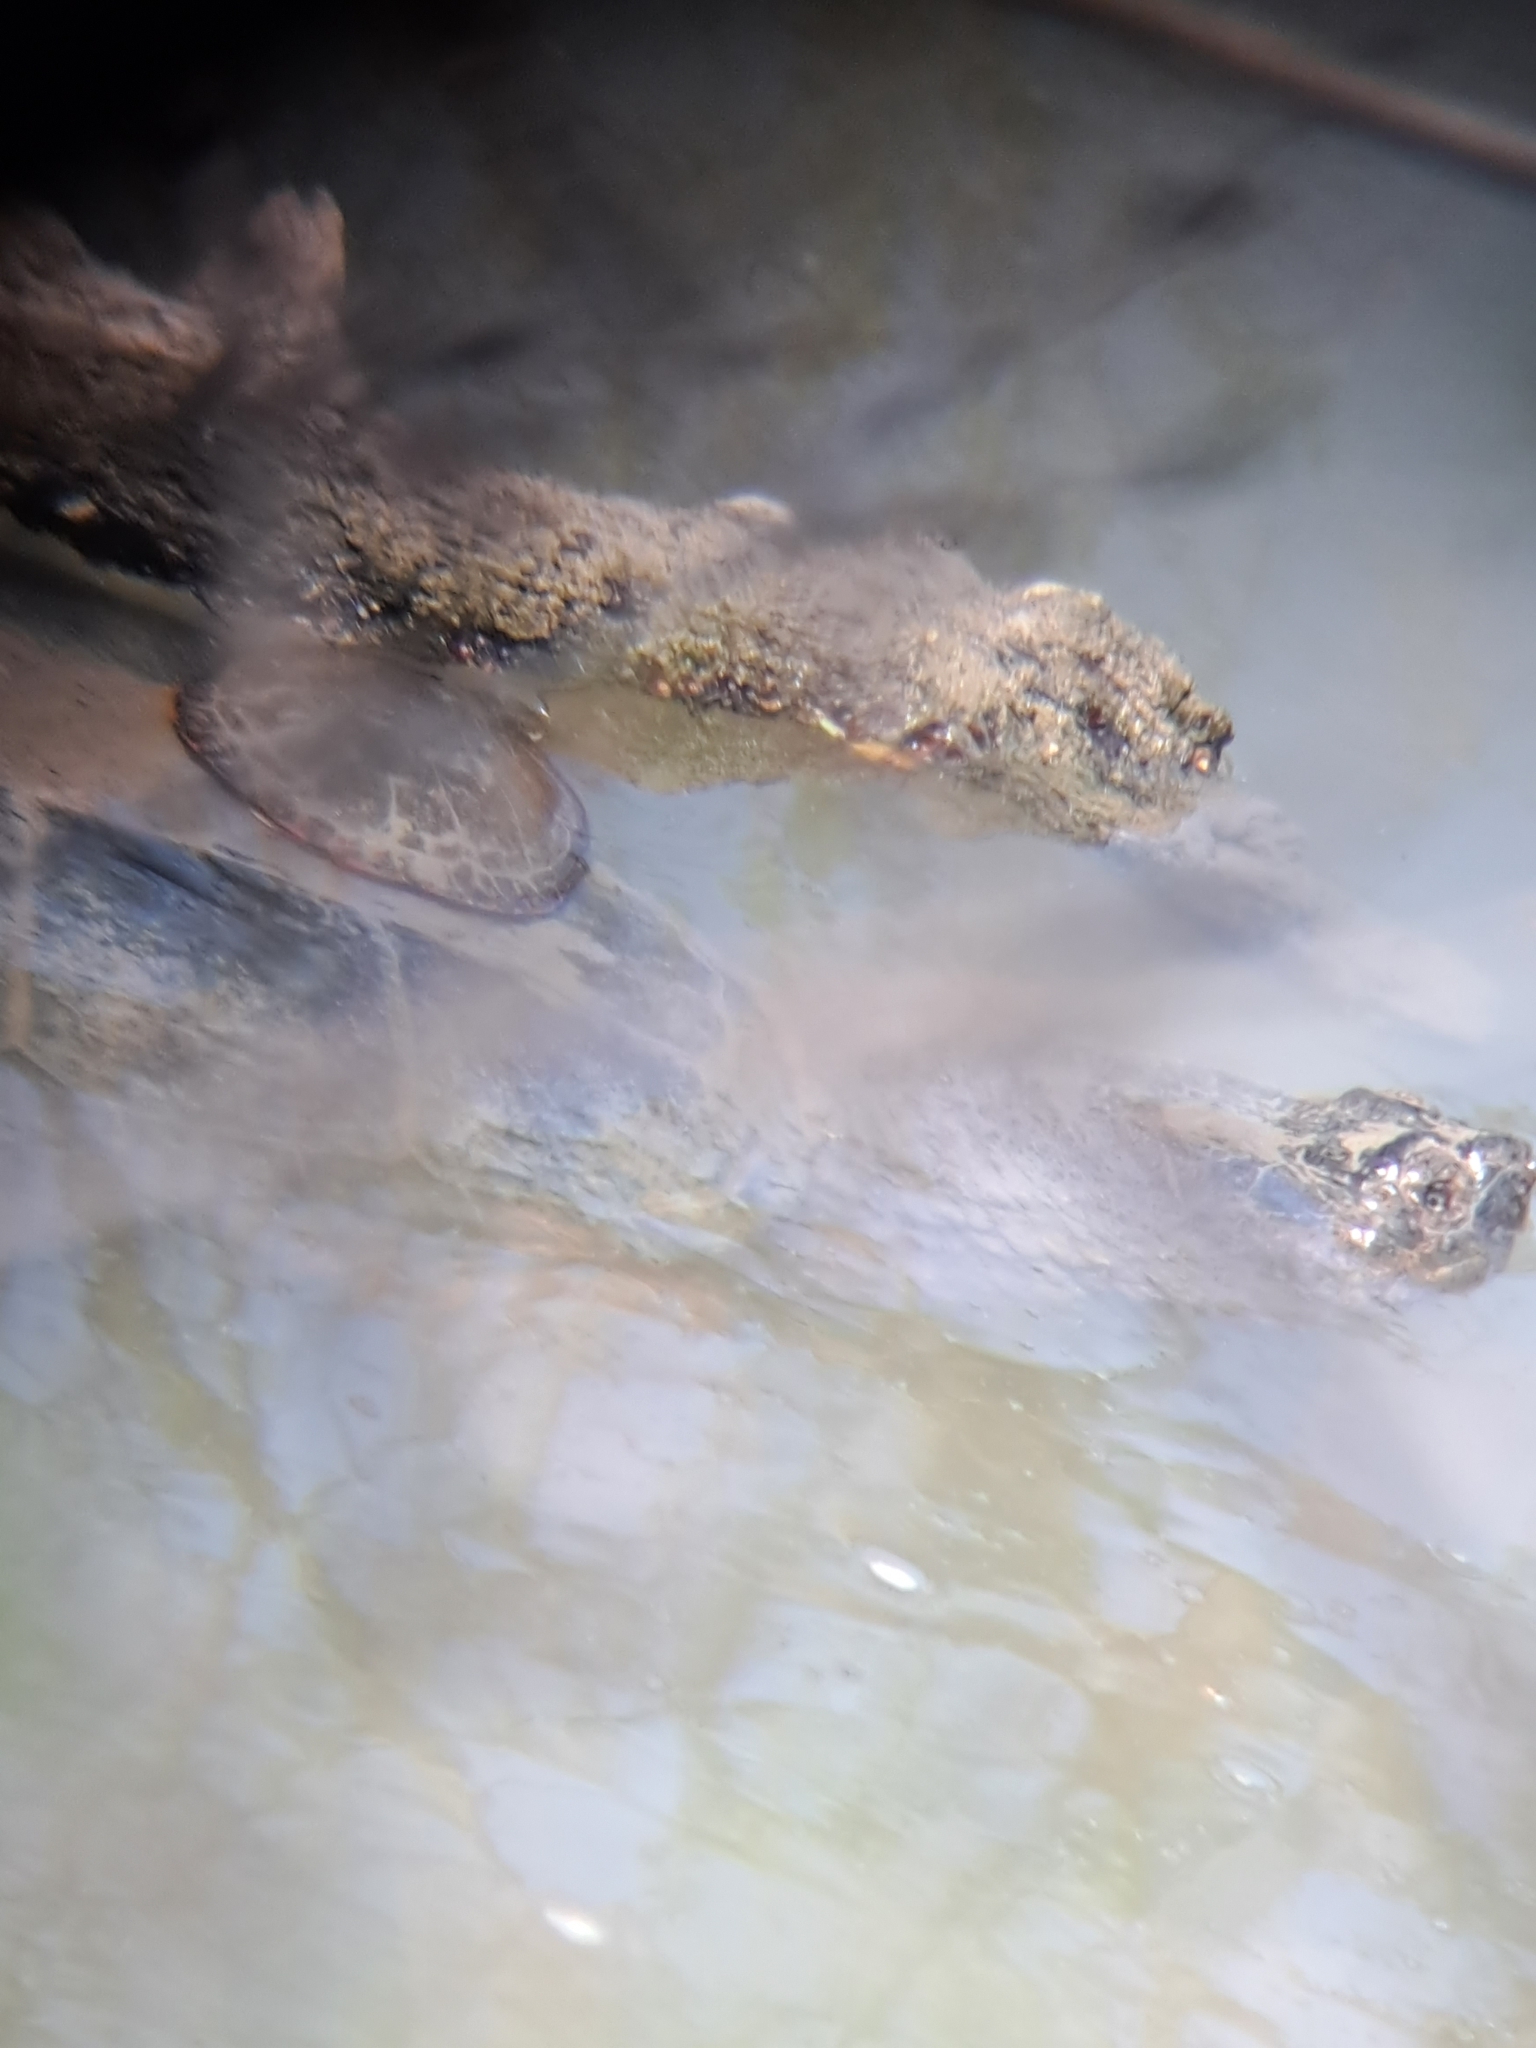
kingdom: Animalia
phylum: Chordata
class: Testudines
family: Emydidae
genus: Chrysemys
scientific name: Chrysemys picta
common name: Painted turtle
